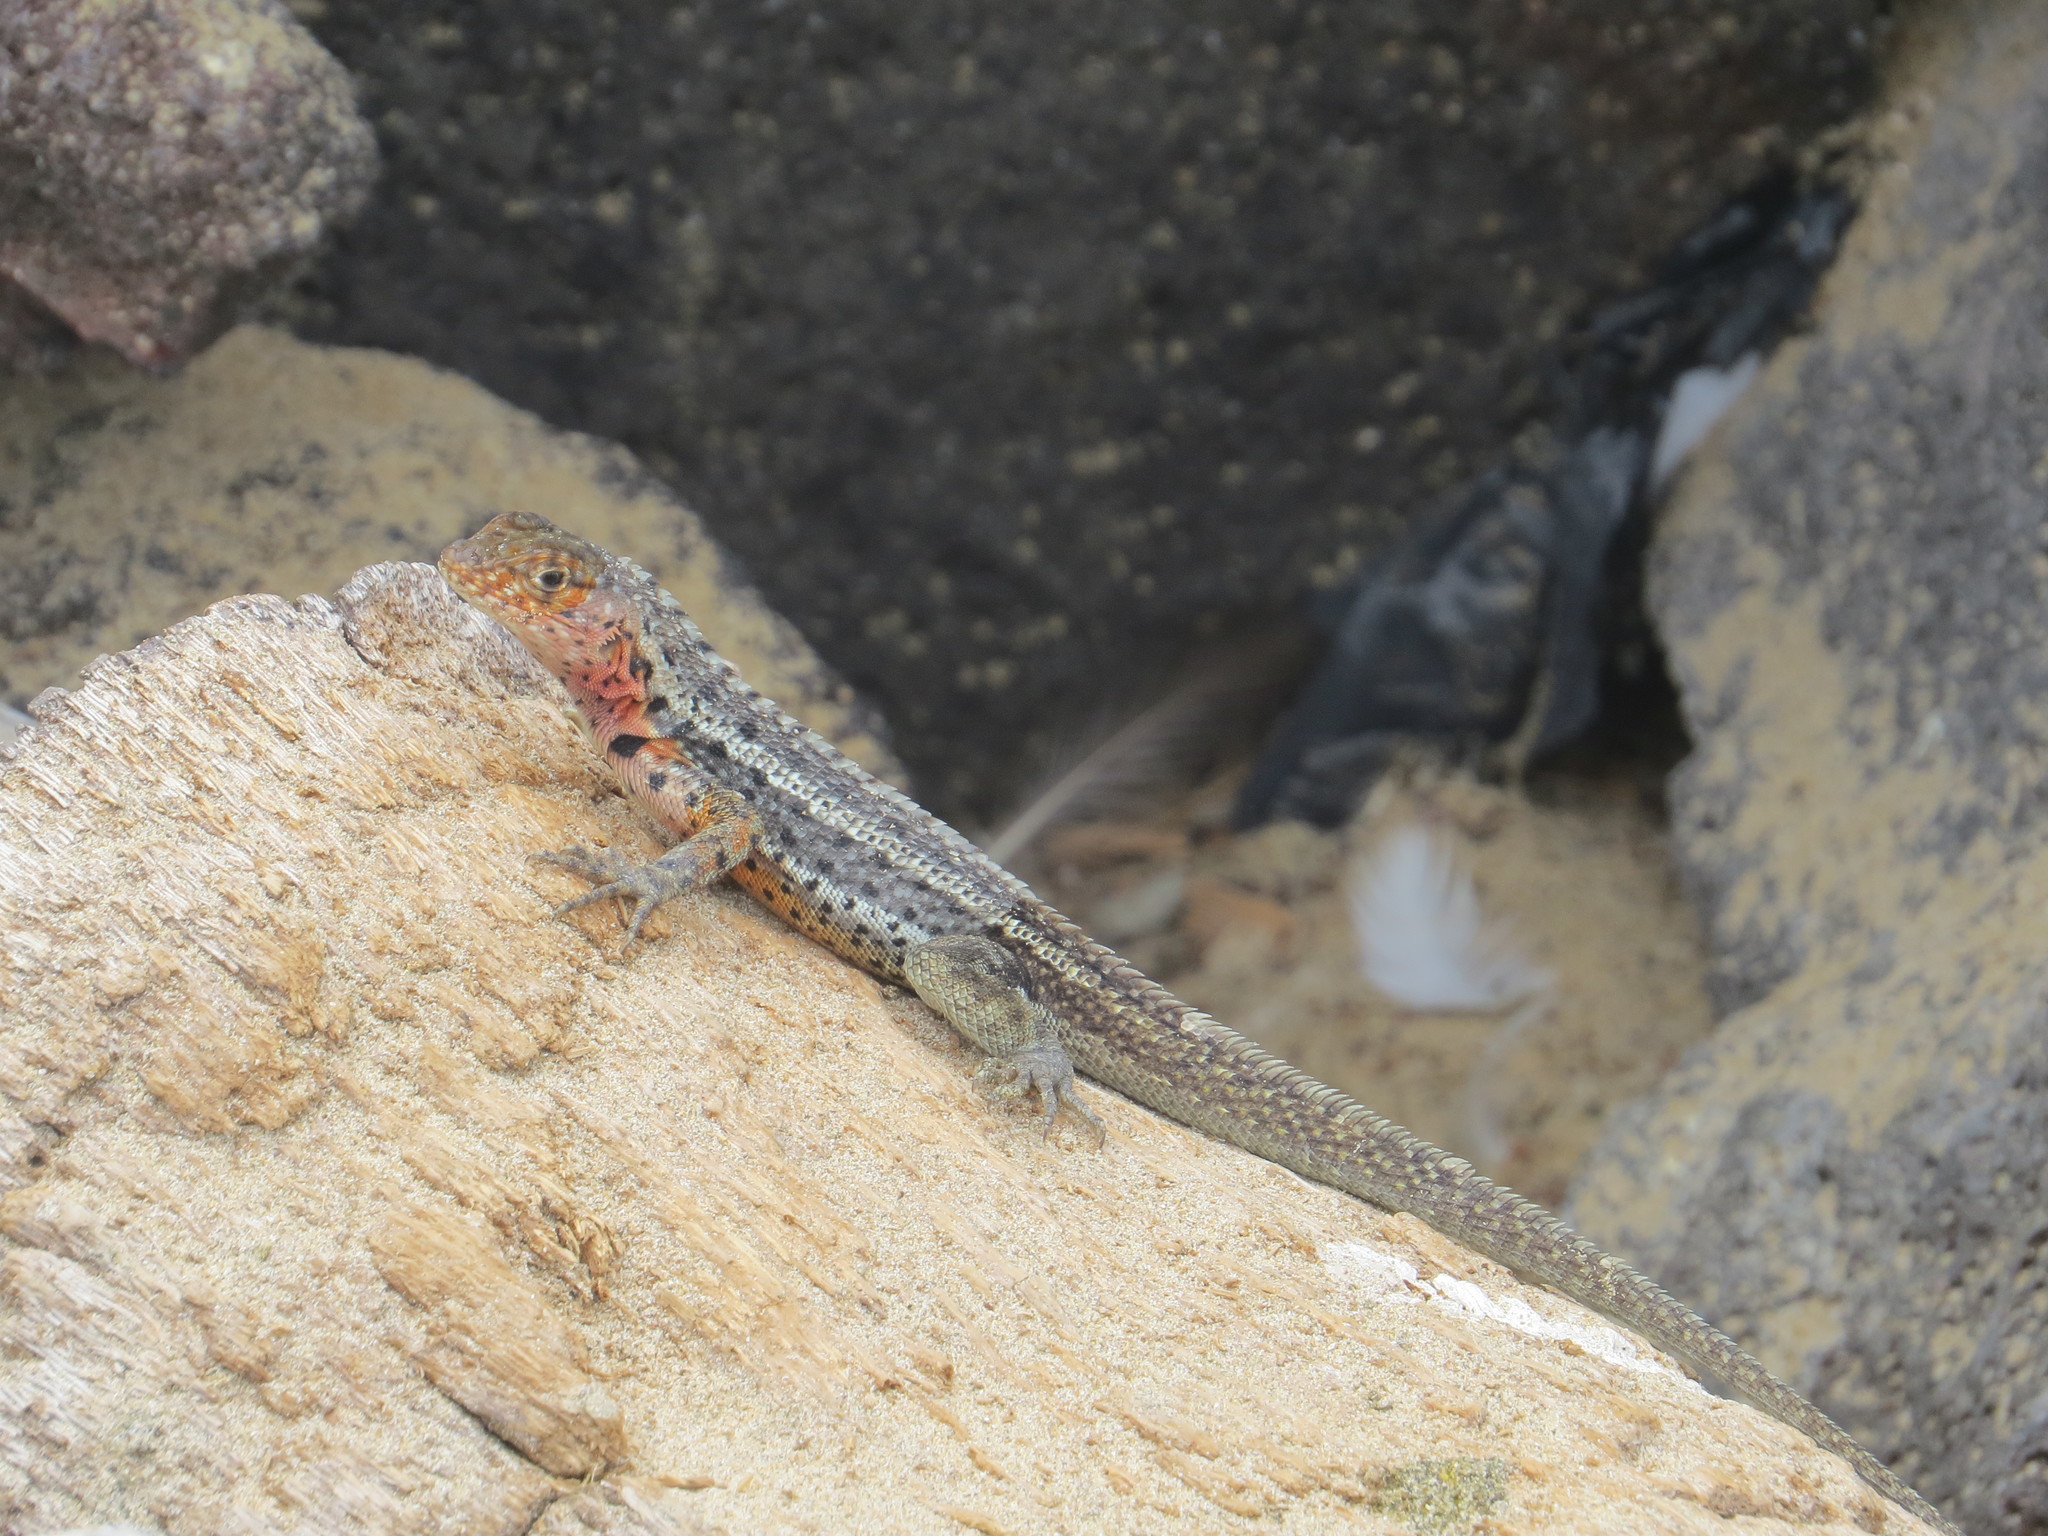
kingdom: Animalia
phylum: Chordata
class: Squamata
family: Tropiduridae
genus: Microlophus
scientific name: Microlophus albemarlensis
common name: Galapagos lava lizard
